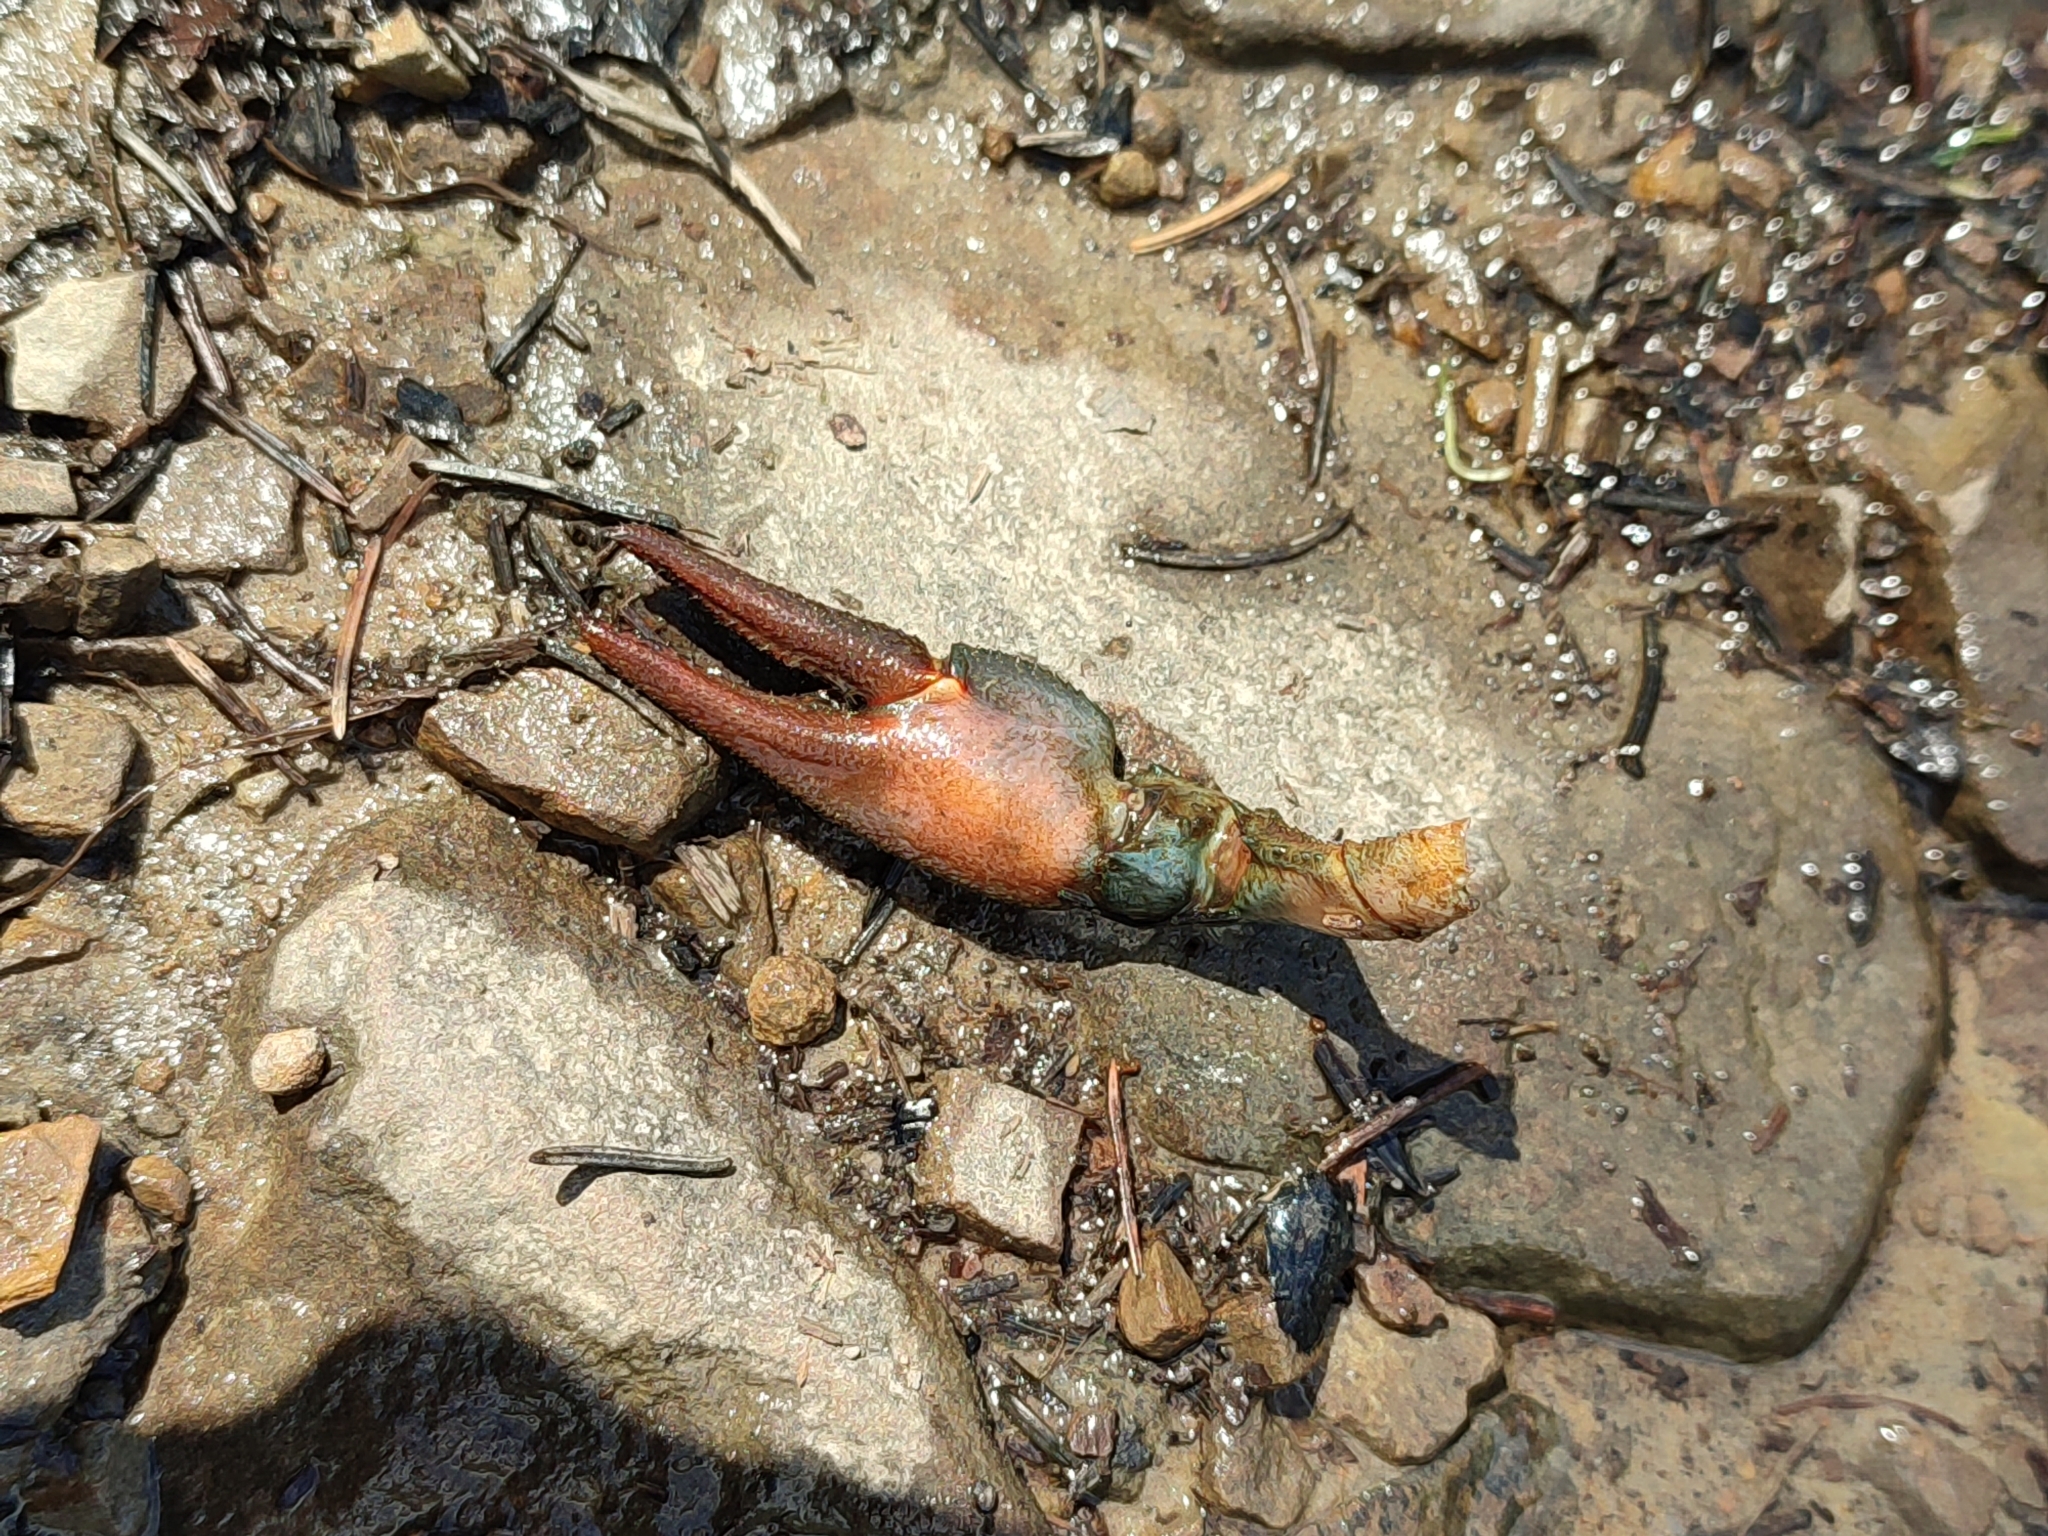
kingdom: Animalia
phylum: Arthropoda
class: Malacostraca
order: Decapoda
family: Astacidae
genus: Astacus
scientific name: Astacus astacus
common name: Noble crayfish
